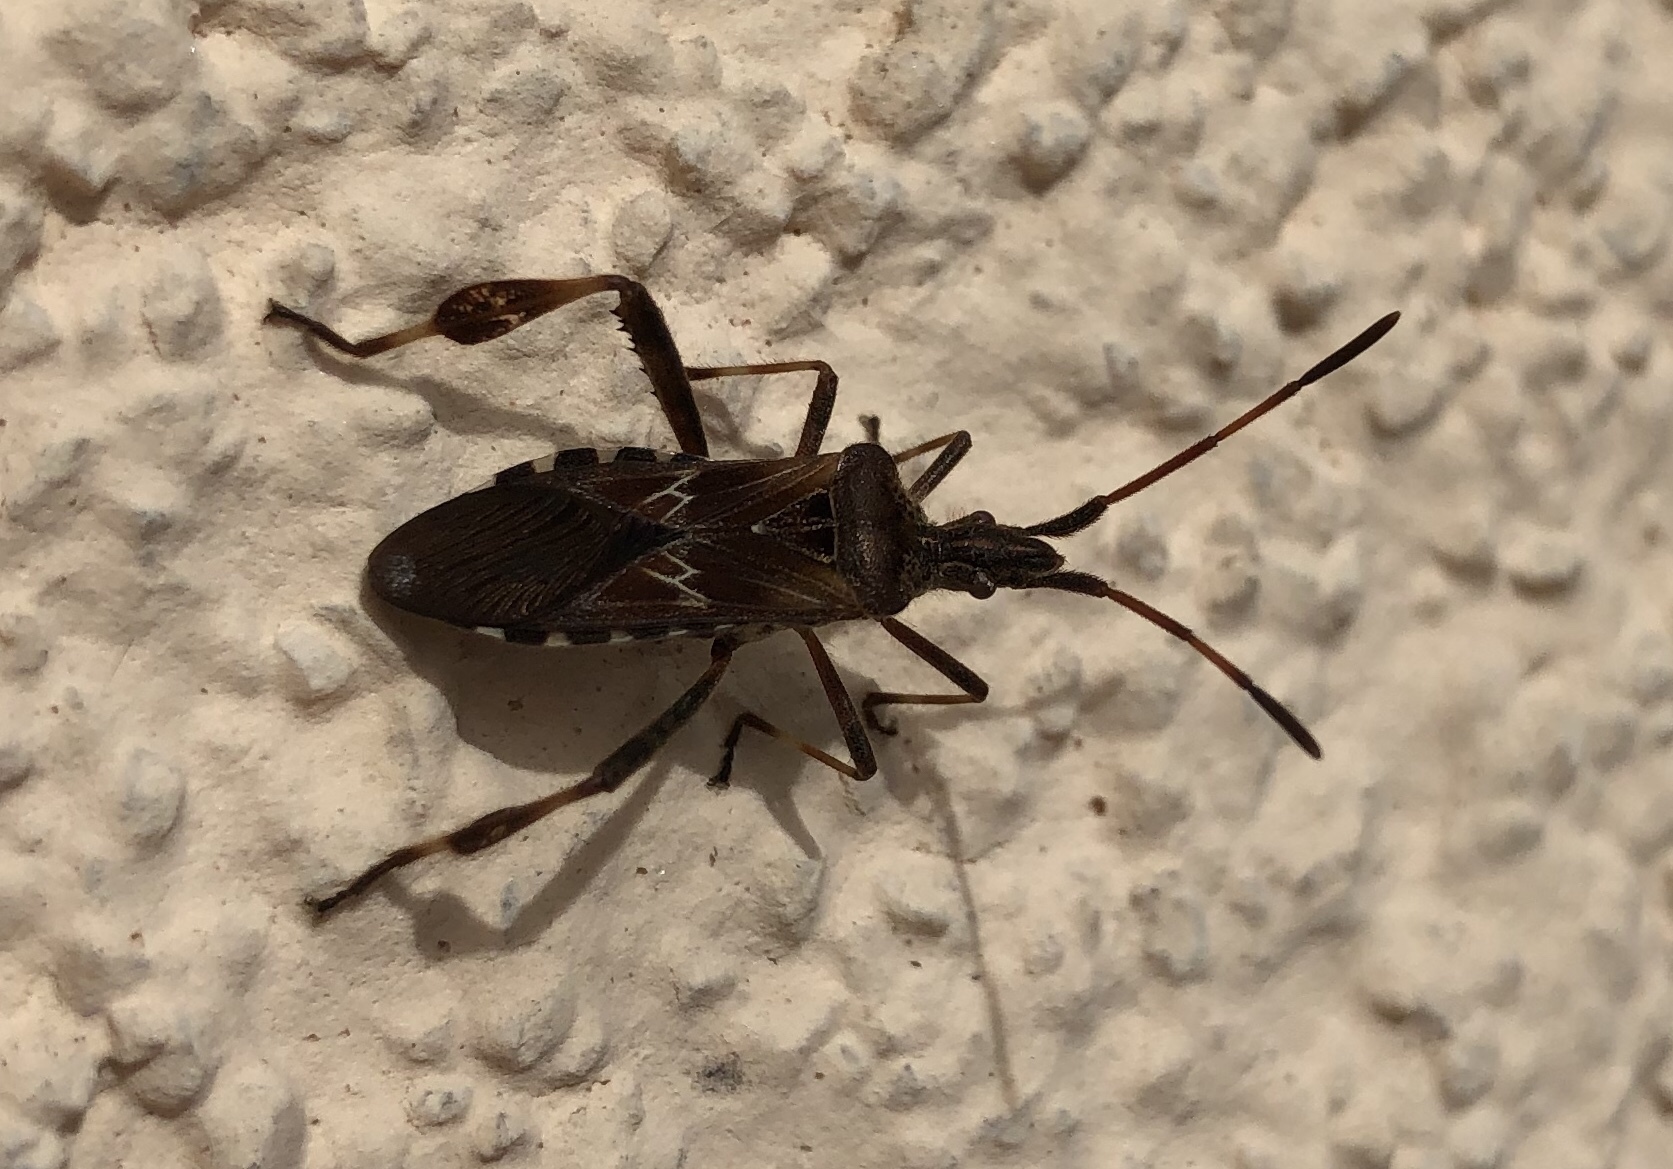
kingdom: Animalia
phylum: Arthropoda
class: Insecta
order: Hemiptera
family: Coreidae
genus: Leptoglossus
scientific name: Leptoglossus occidentalis
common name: Western conifer-seed bug
